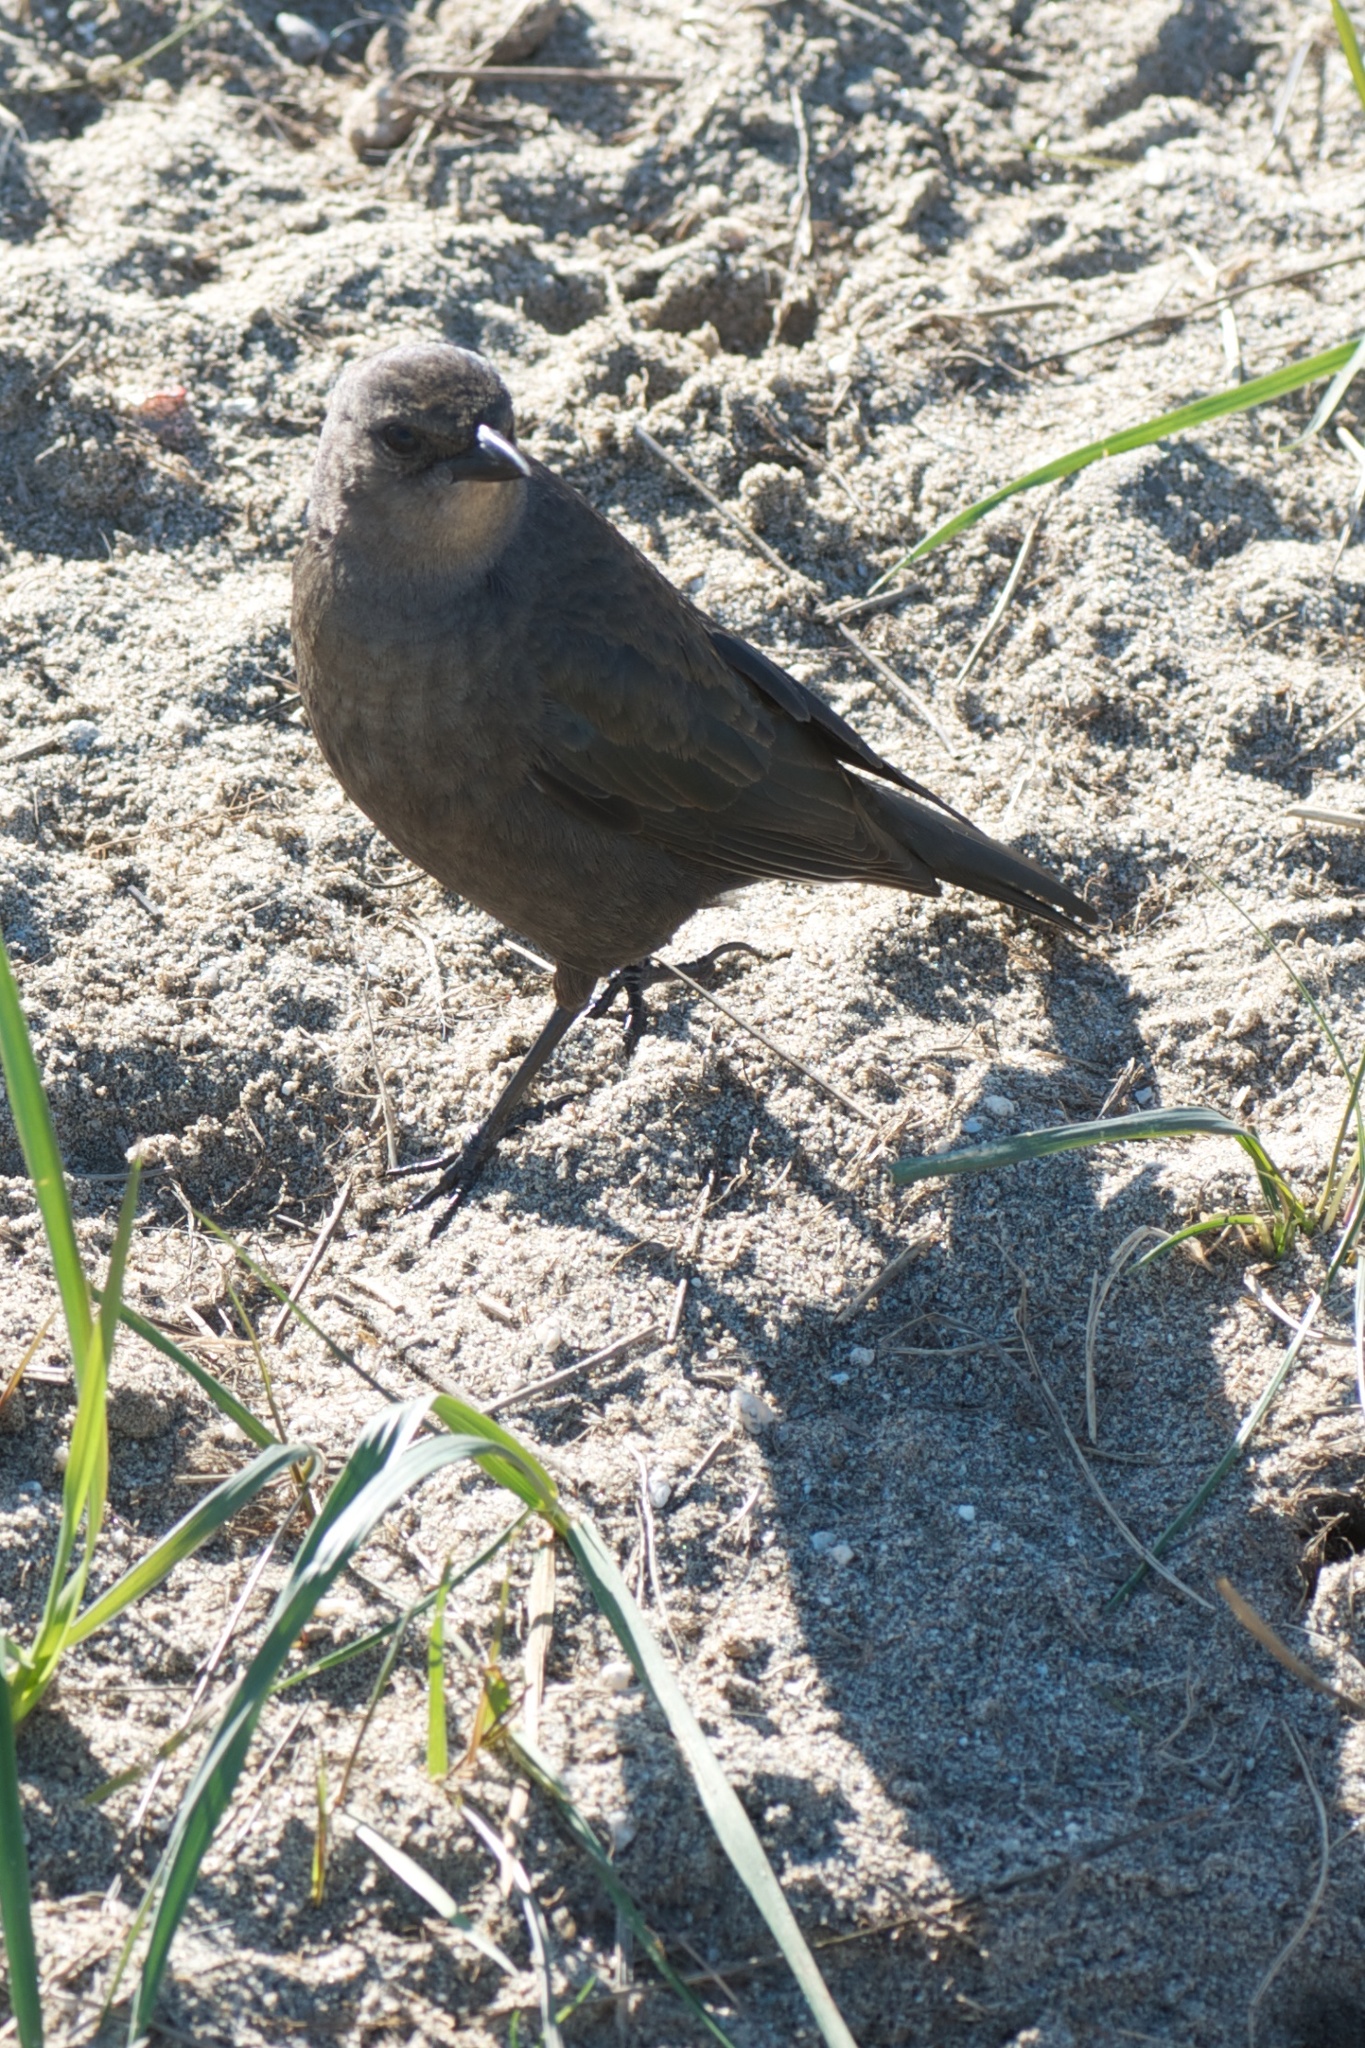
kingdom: Animalia
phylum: Chordata
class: Aves
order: Passeriformes
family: Icteridae
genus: Euphagus
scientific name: Euphagus cyanocephalus
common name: Brewer's blackbird
